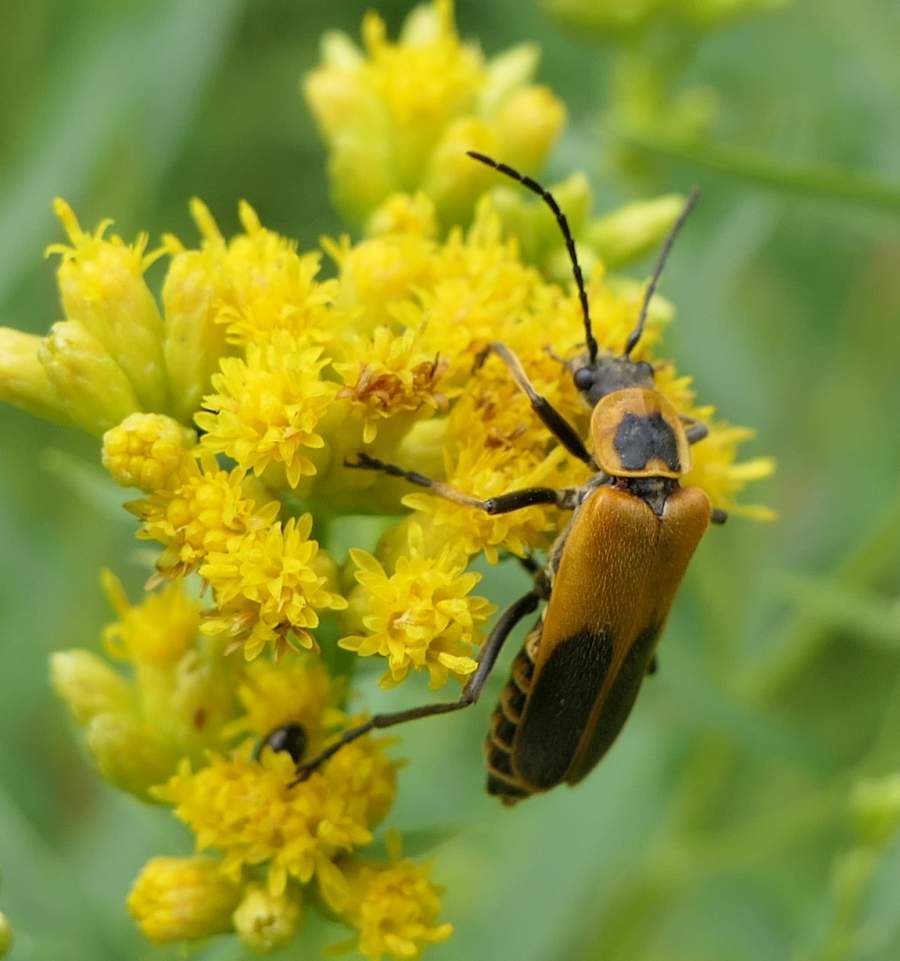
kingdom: Animalia
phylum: Arthropoda
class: Insecta
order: Coleoptera
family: Cantharidae
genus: Chauliognathus
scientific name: Chauliognathus pensylvanicus
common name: Goldenrod soldier beetle
